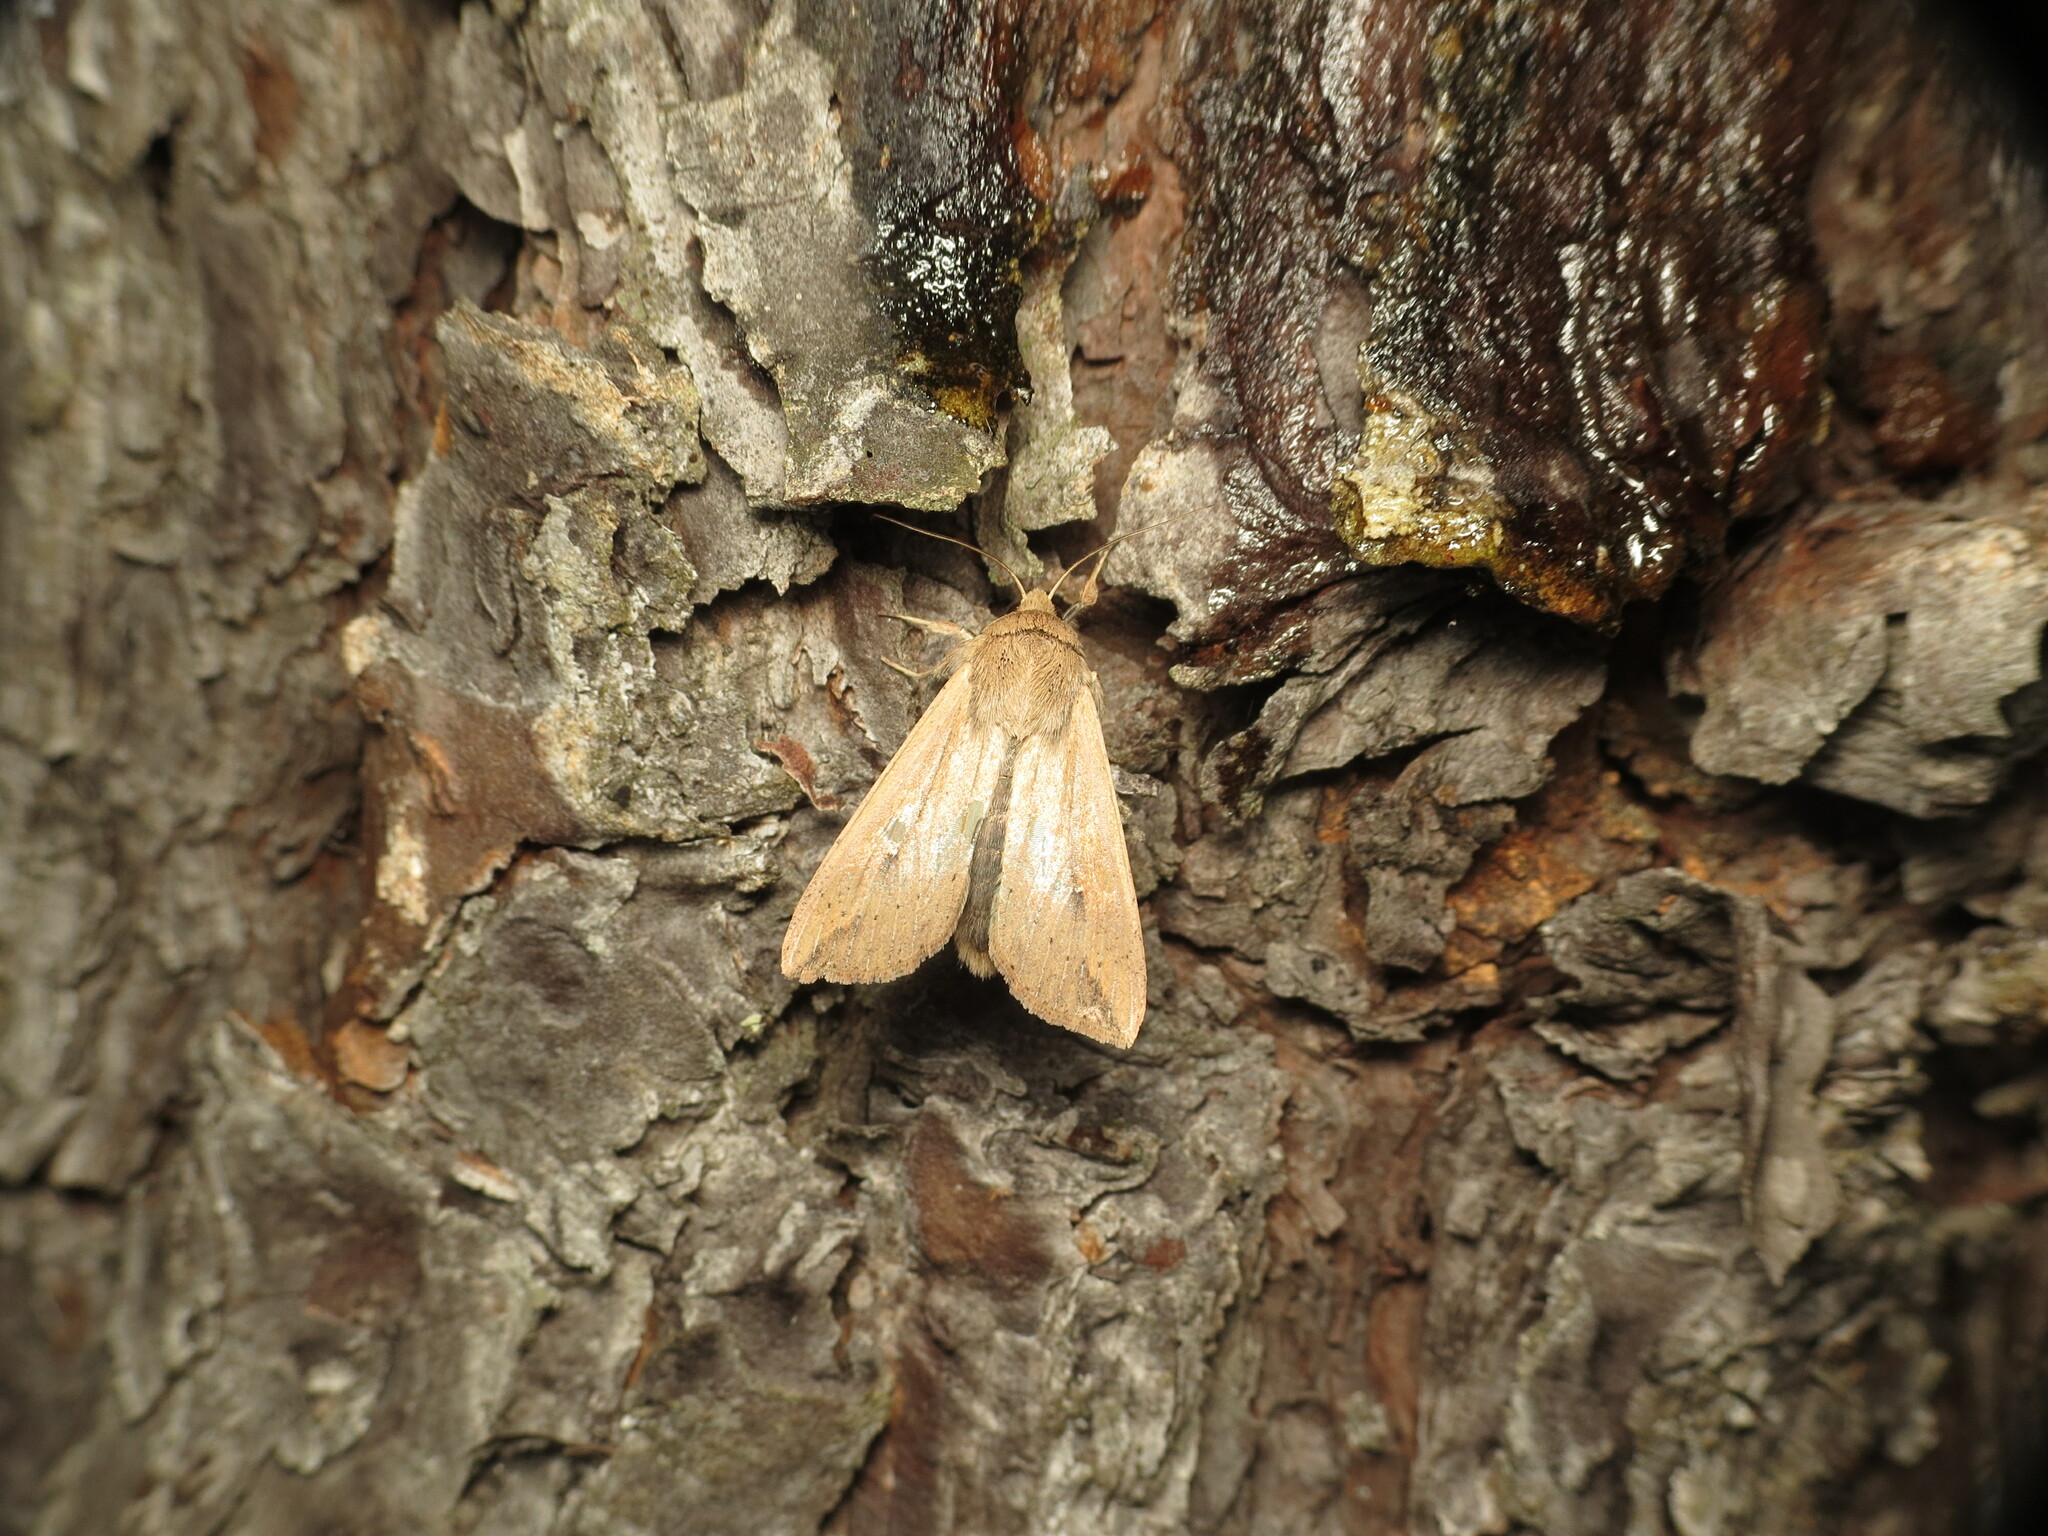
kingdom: Animalia
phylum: Arthropoda
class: Insecta
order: Lepidoptera
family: Noctuidae
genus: Mythimna
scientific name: Mythimna unipuncta
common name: White-speck
